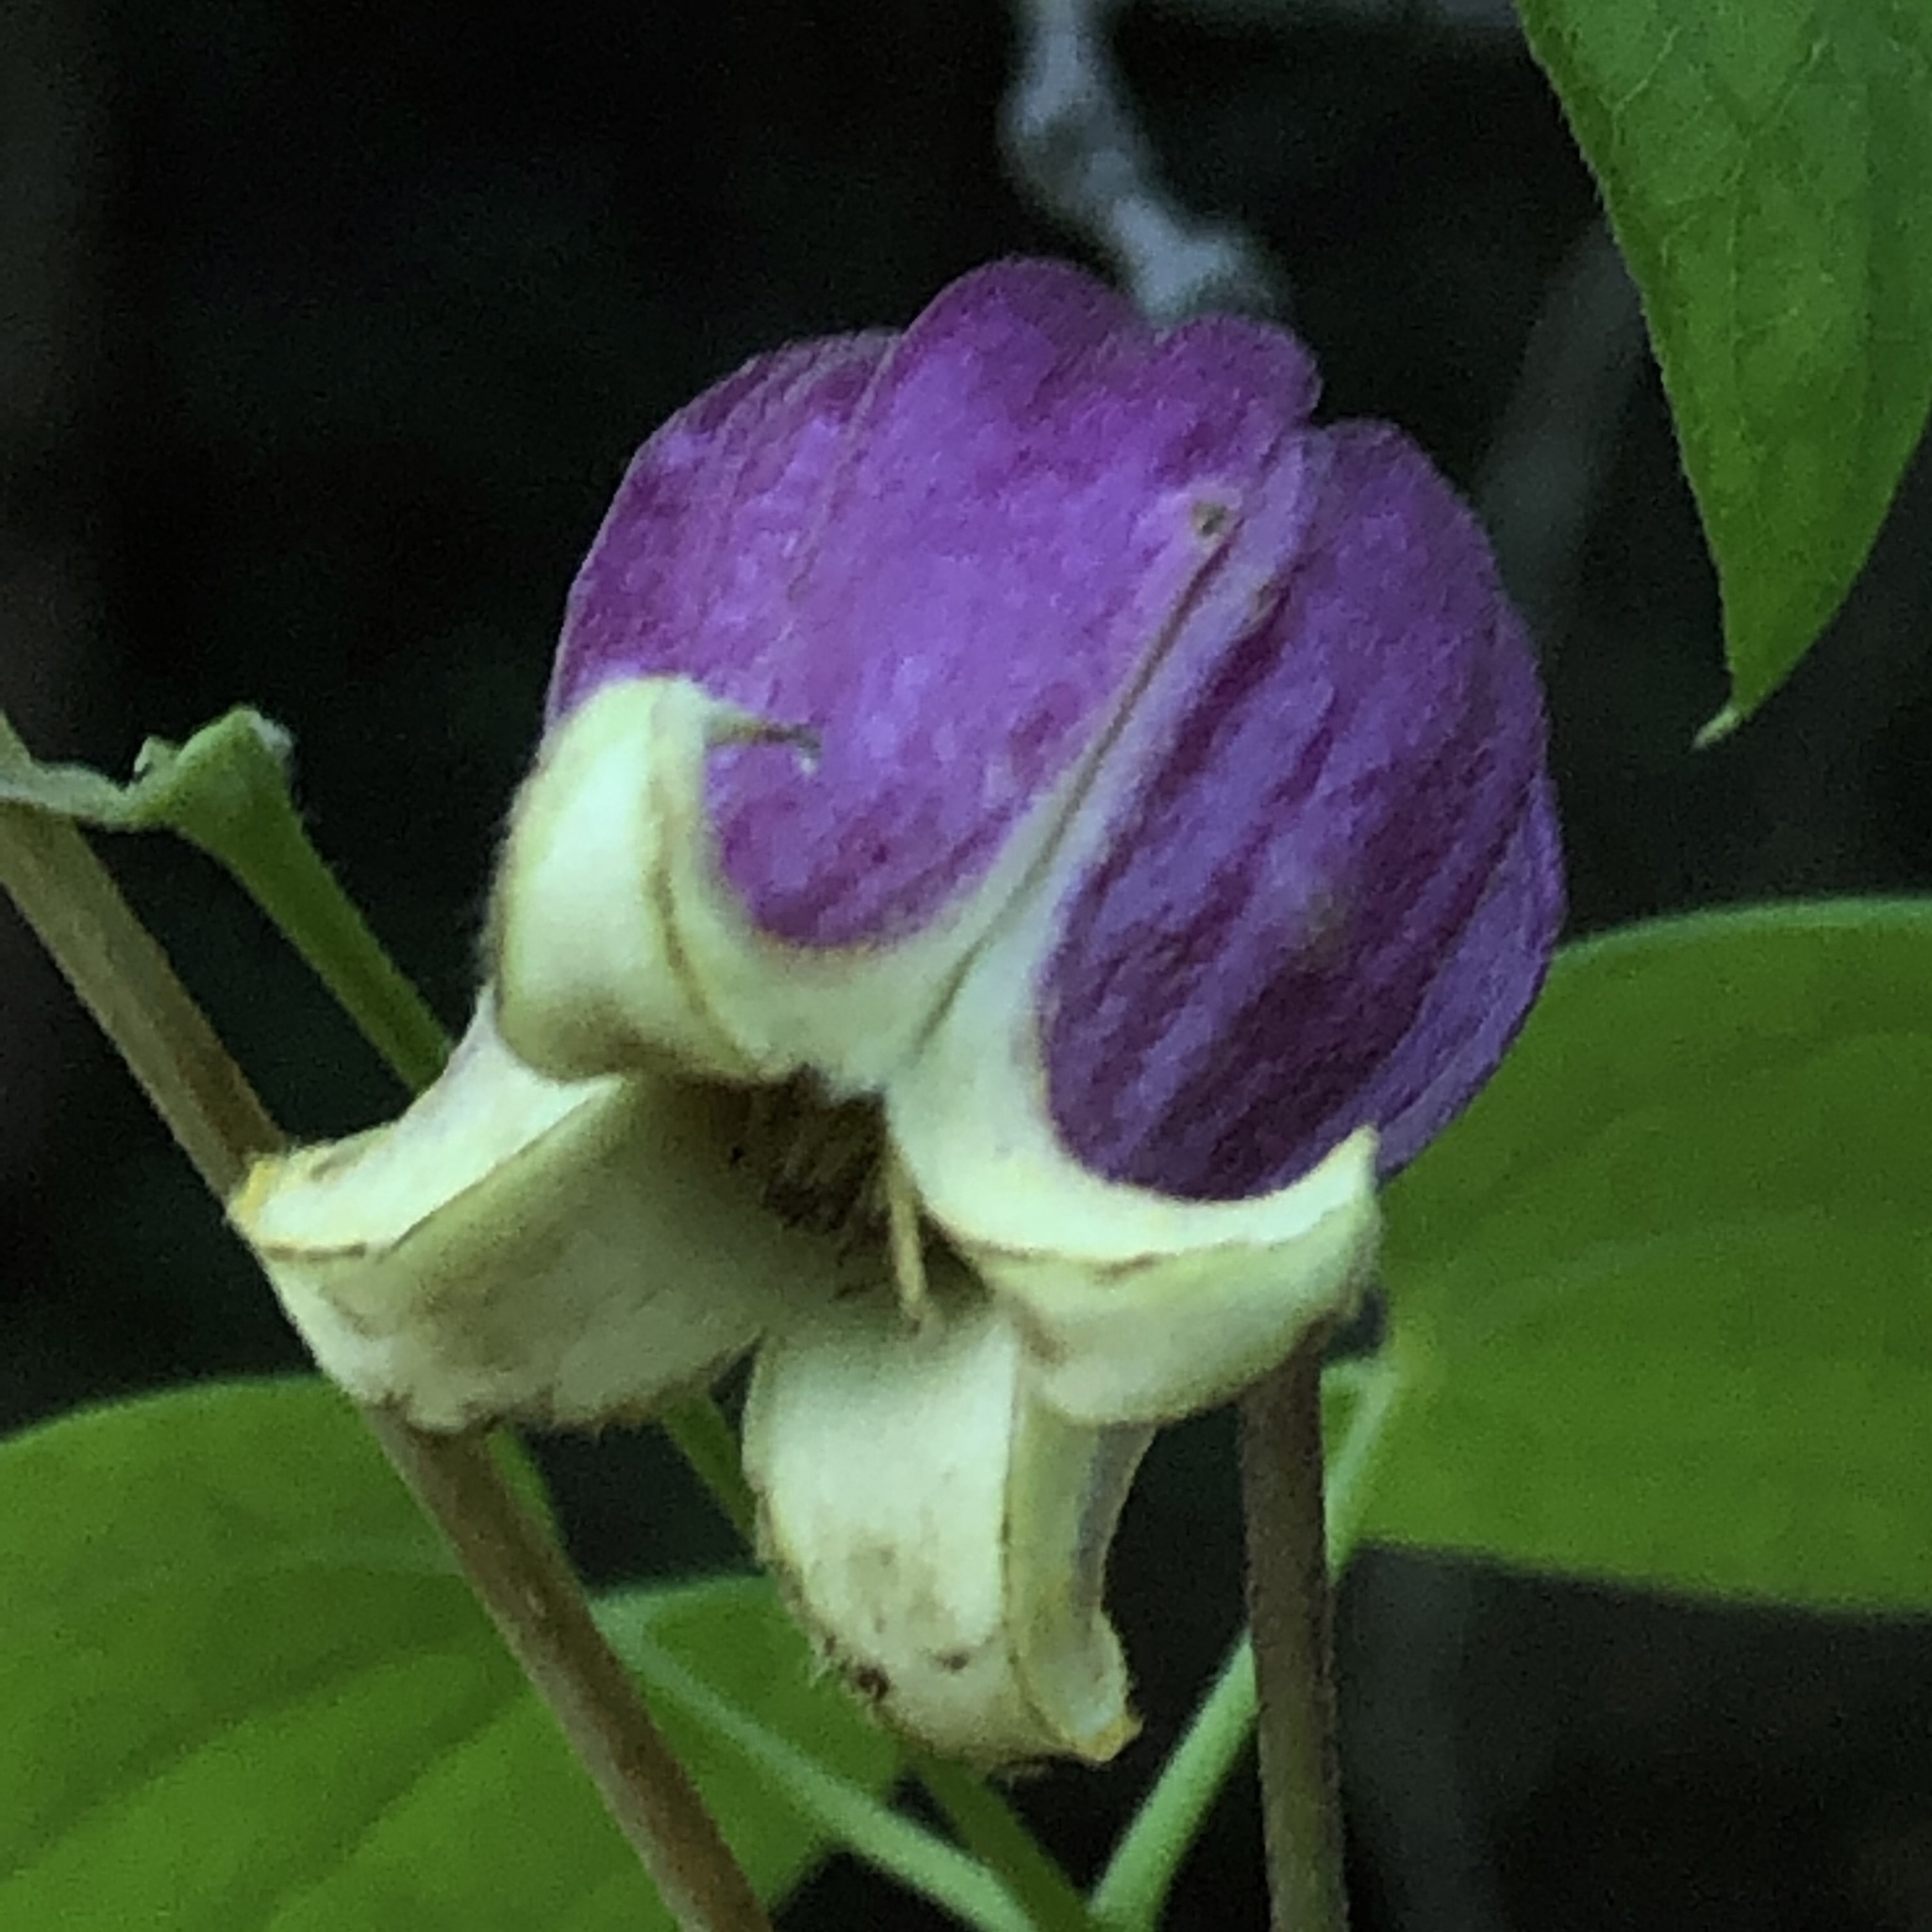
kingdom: Plantae
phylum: Tracheophyta
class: Magnoliopsida
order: Ranunculales
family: Ranunculaceae
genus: Clematis
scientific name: Clematis viorna
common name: Leather-flower
